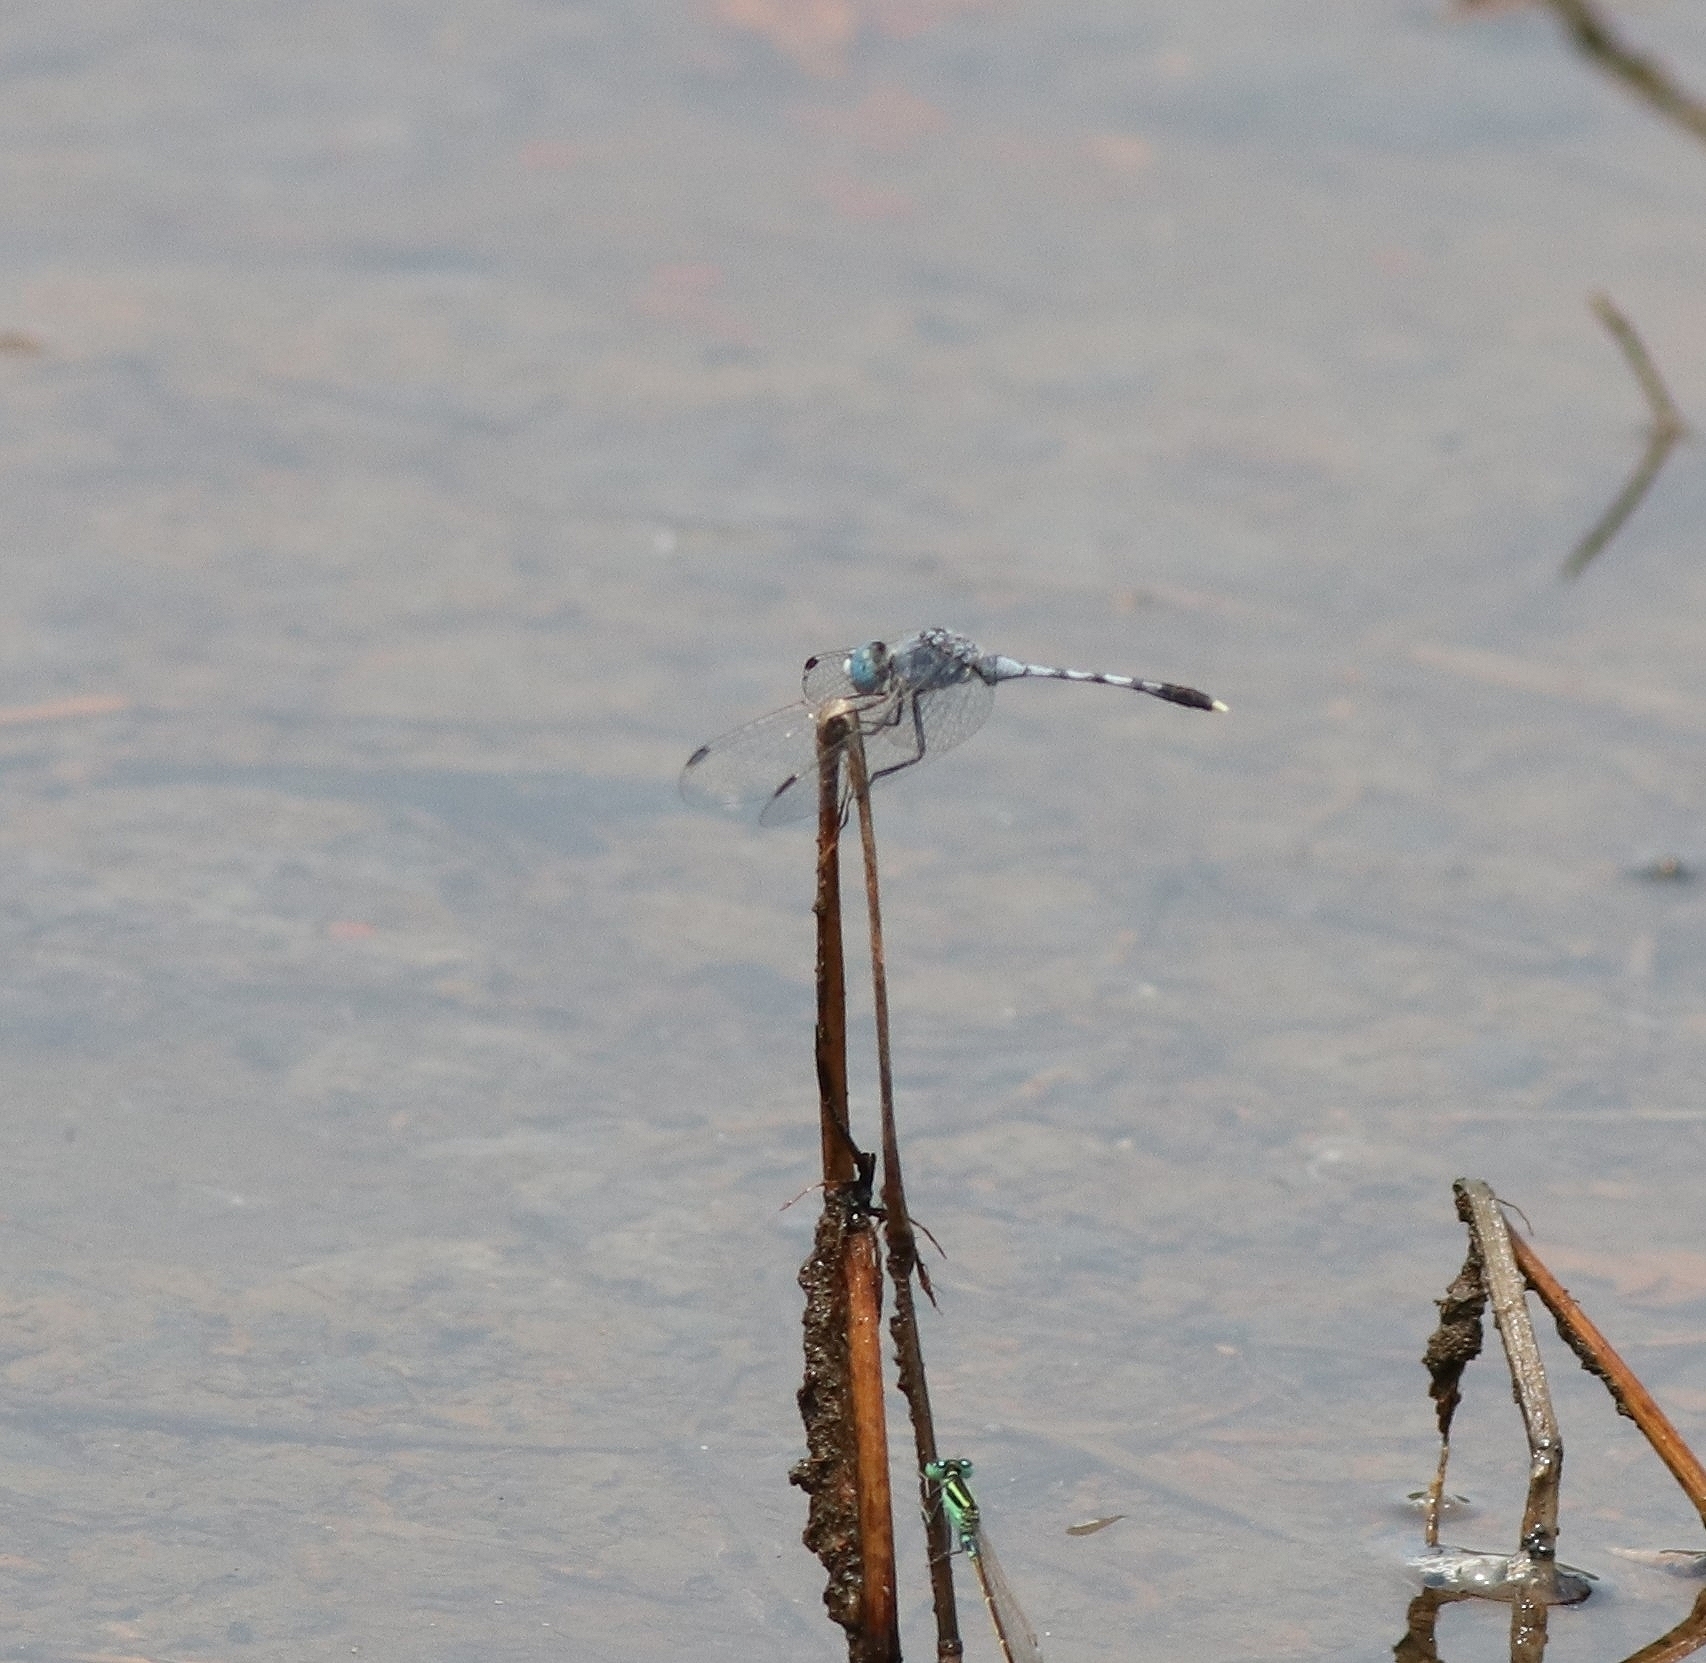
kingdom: Animalia
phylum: Arthropoda
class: Insecta
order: Odonata
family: Libellulidae
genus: Diplacodes
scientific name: Diplacodes trivialis
